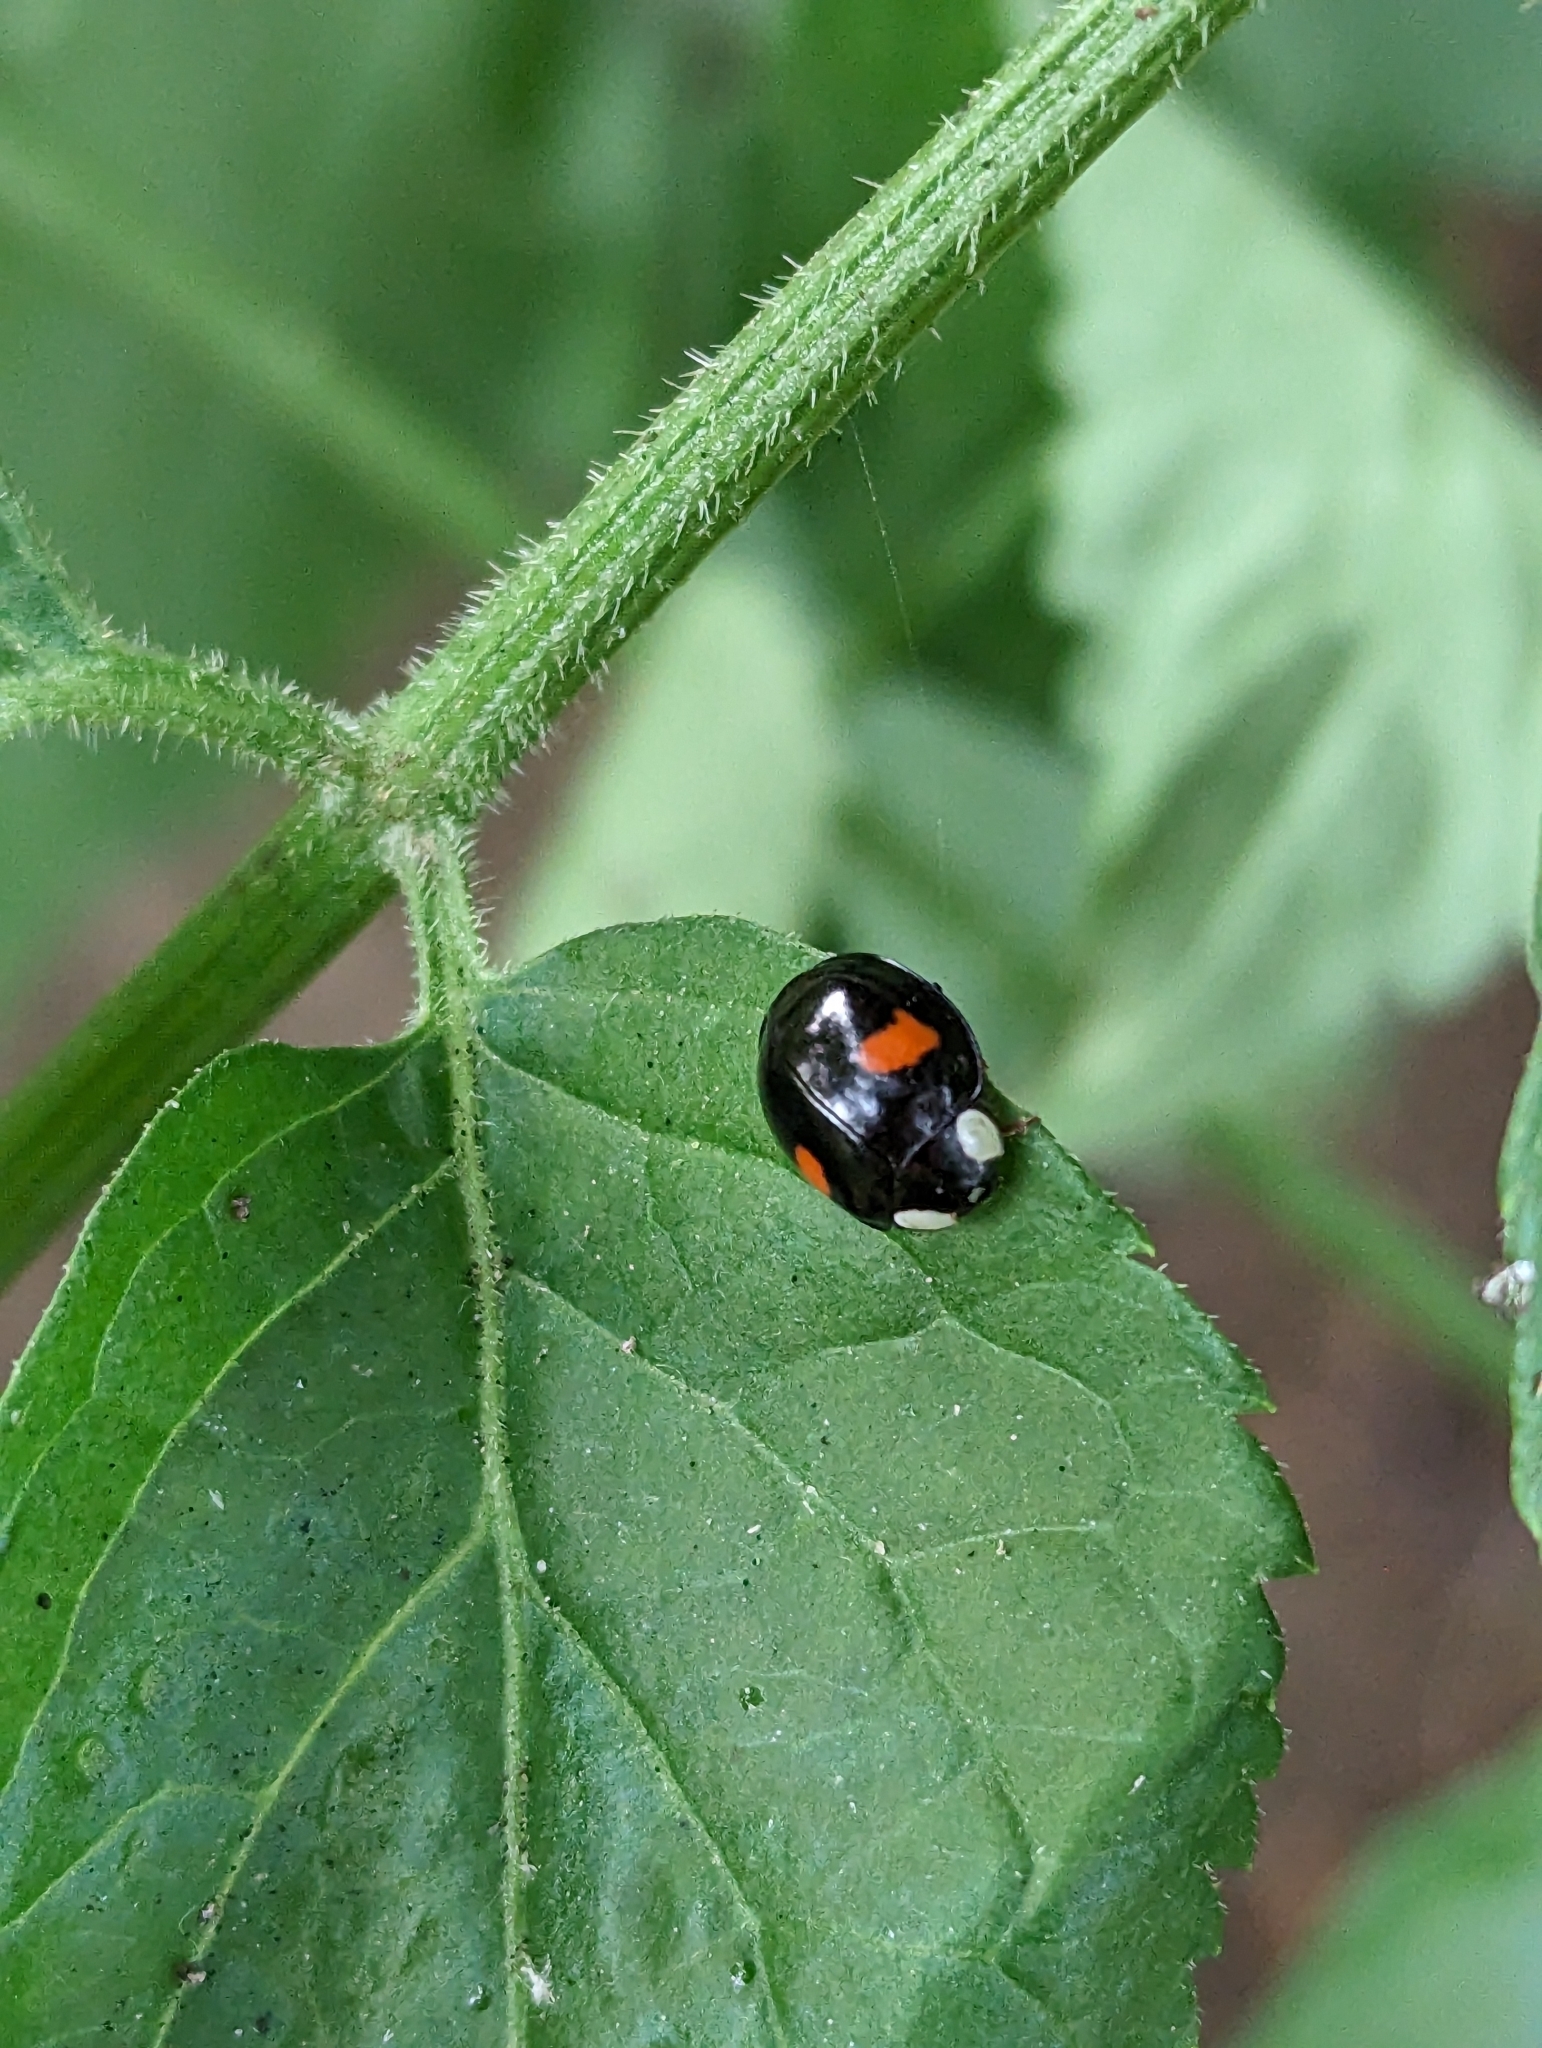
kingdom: Animalia
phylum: Arthropoda
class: Insecta
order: Coleoptera
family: Coccinellidae
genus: Harmonia
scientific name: Harmonia axyridis
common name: Harlequin ladybird
